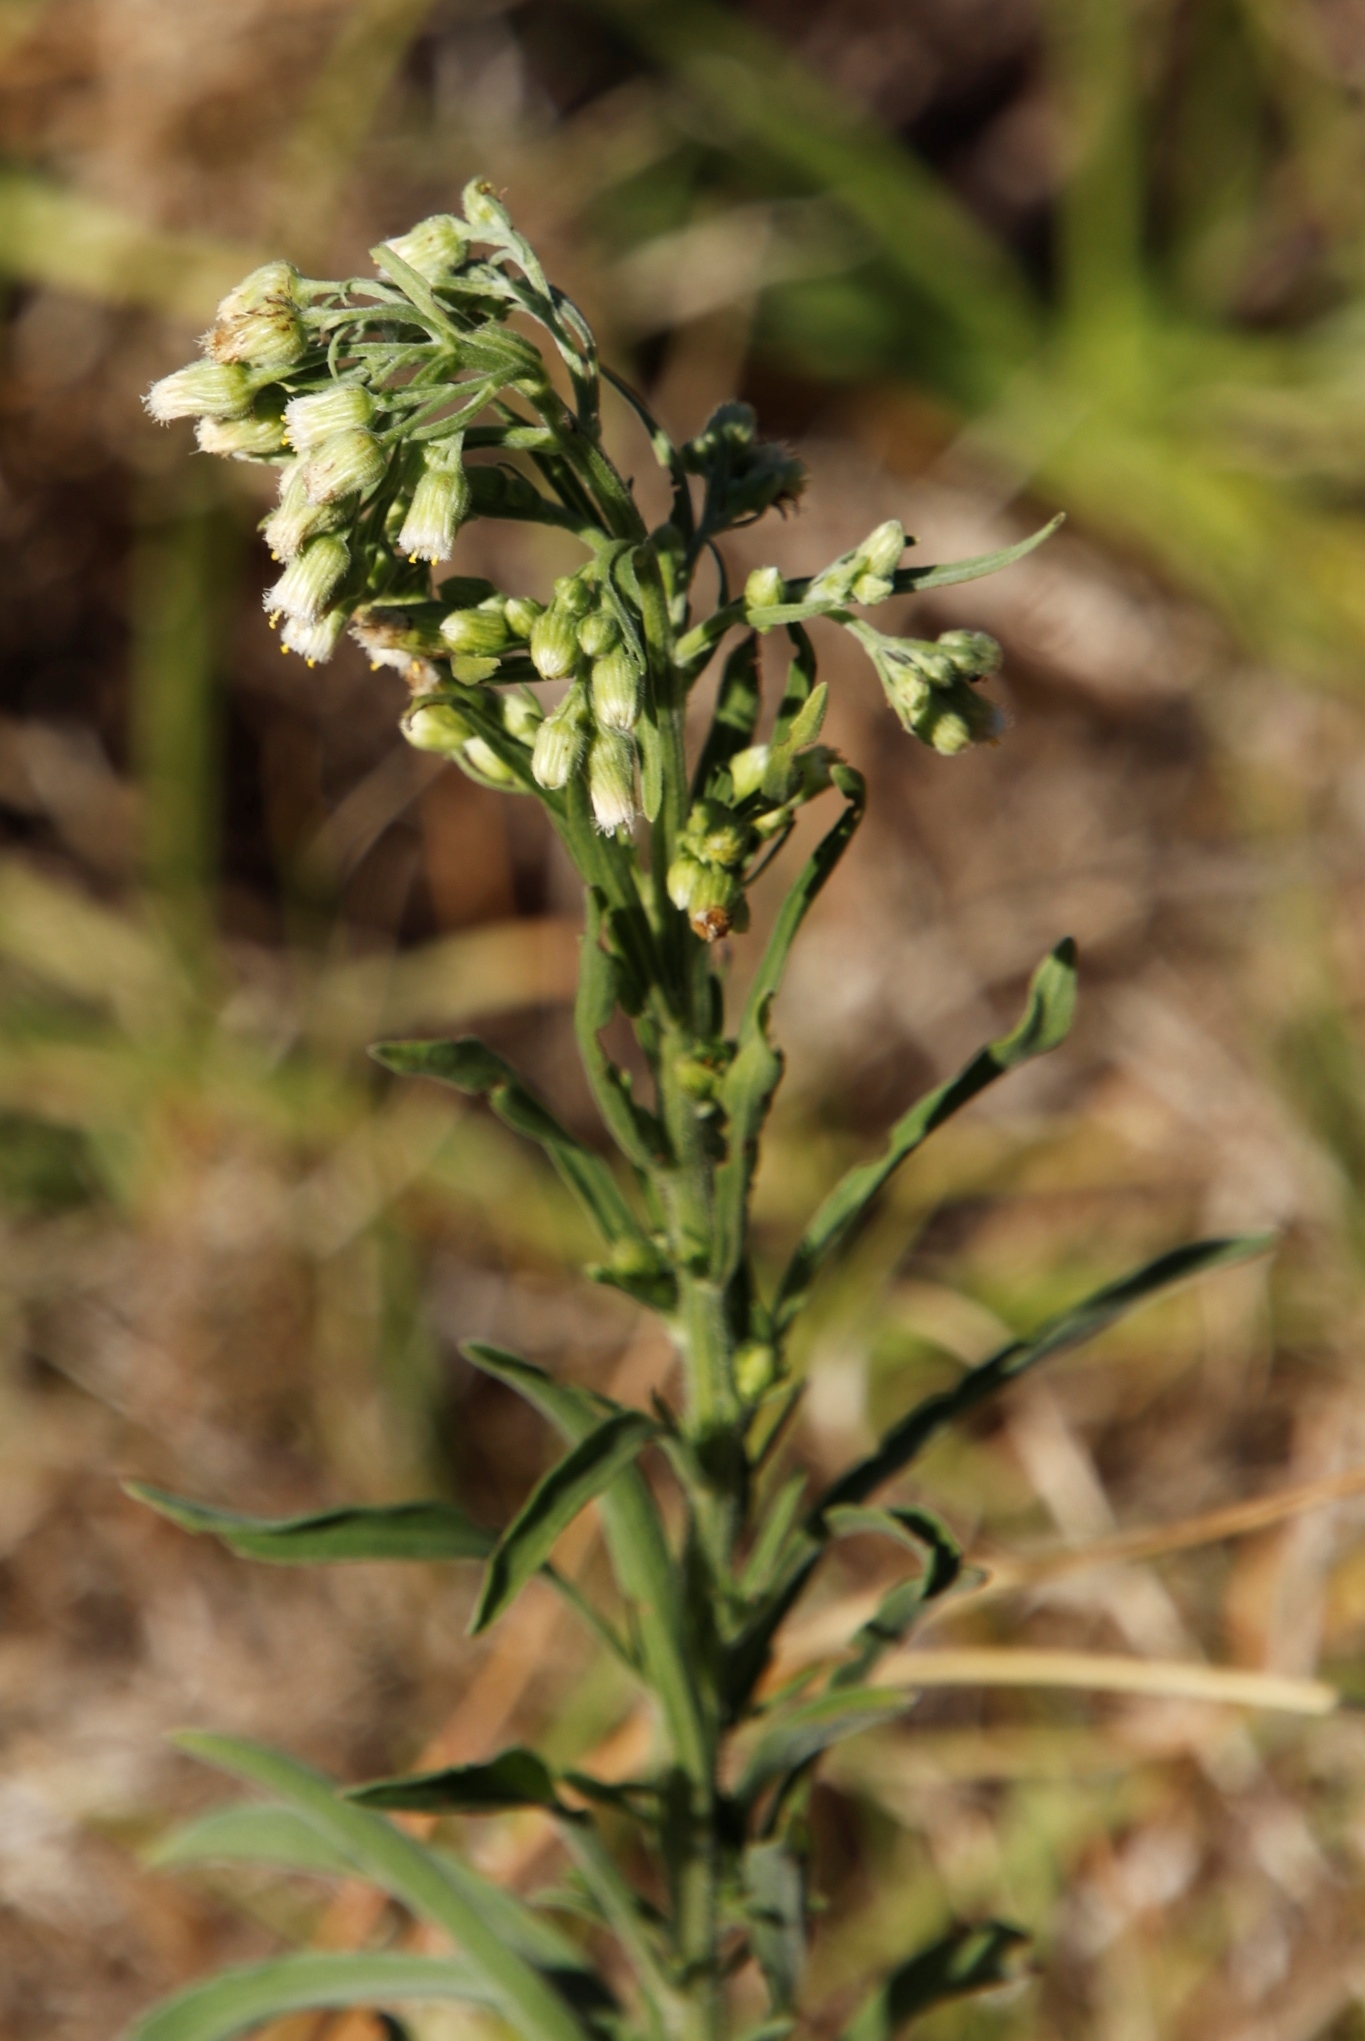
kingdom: Plantae
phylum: Tracheophyta
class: Magnoliopsida
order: Asterales
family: Asteraceae
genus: Erigeron
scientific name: Erigeron bonariensis
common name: Argentine fleabane
